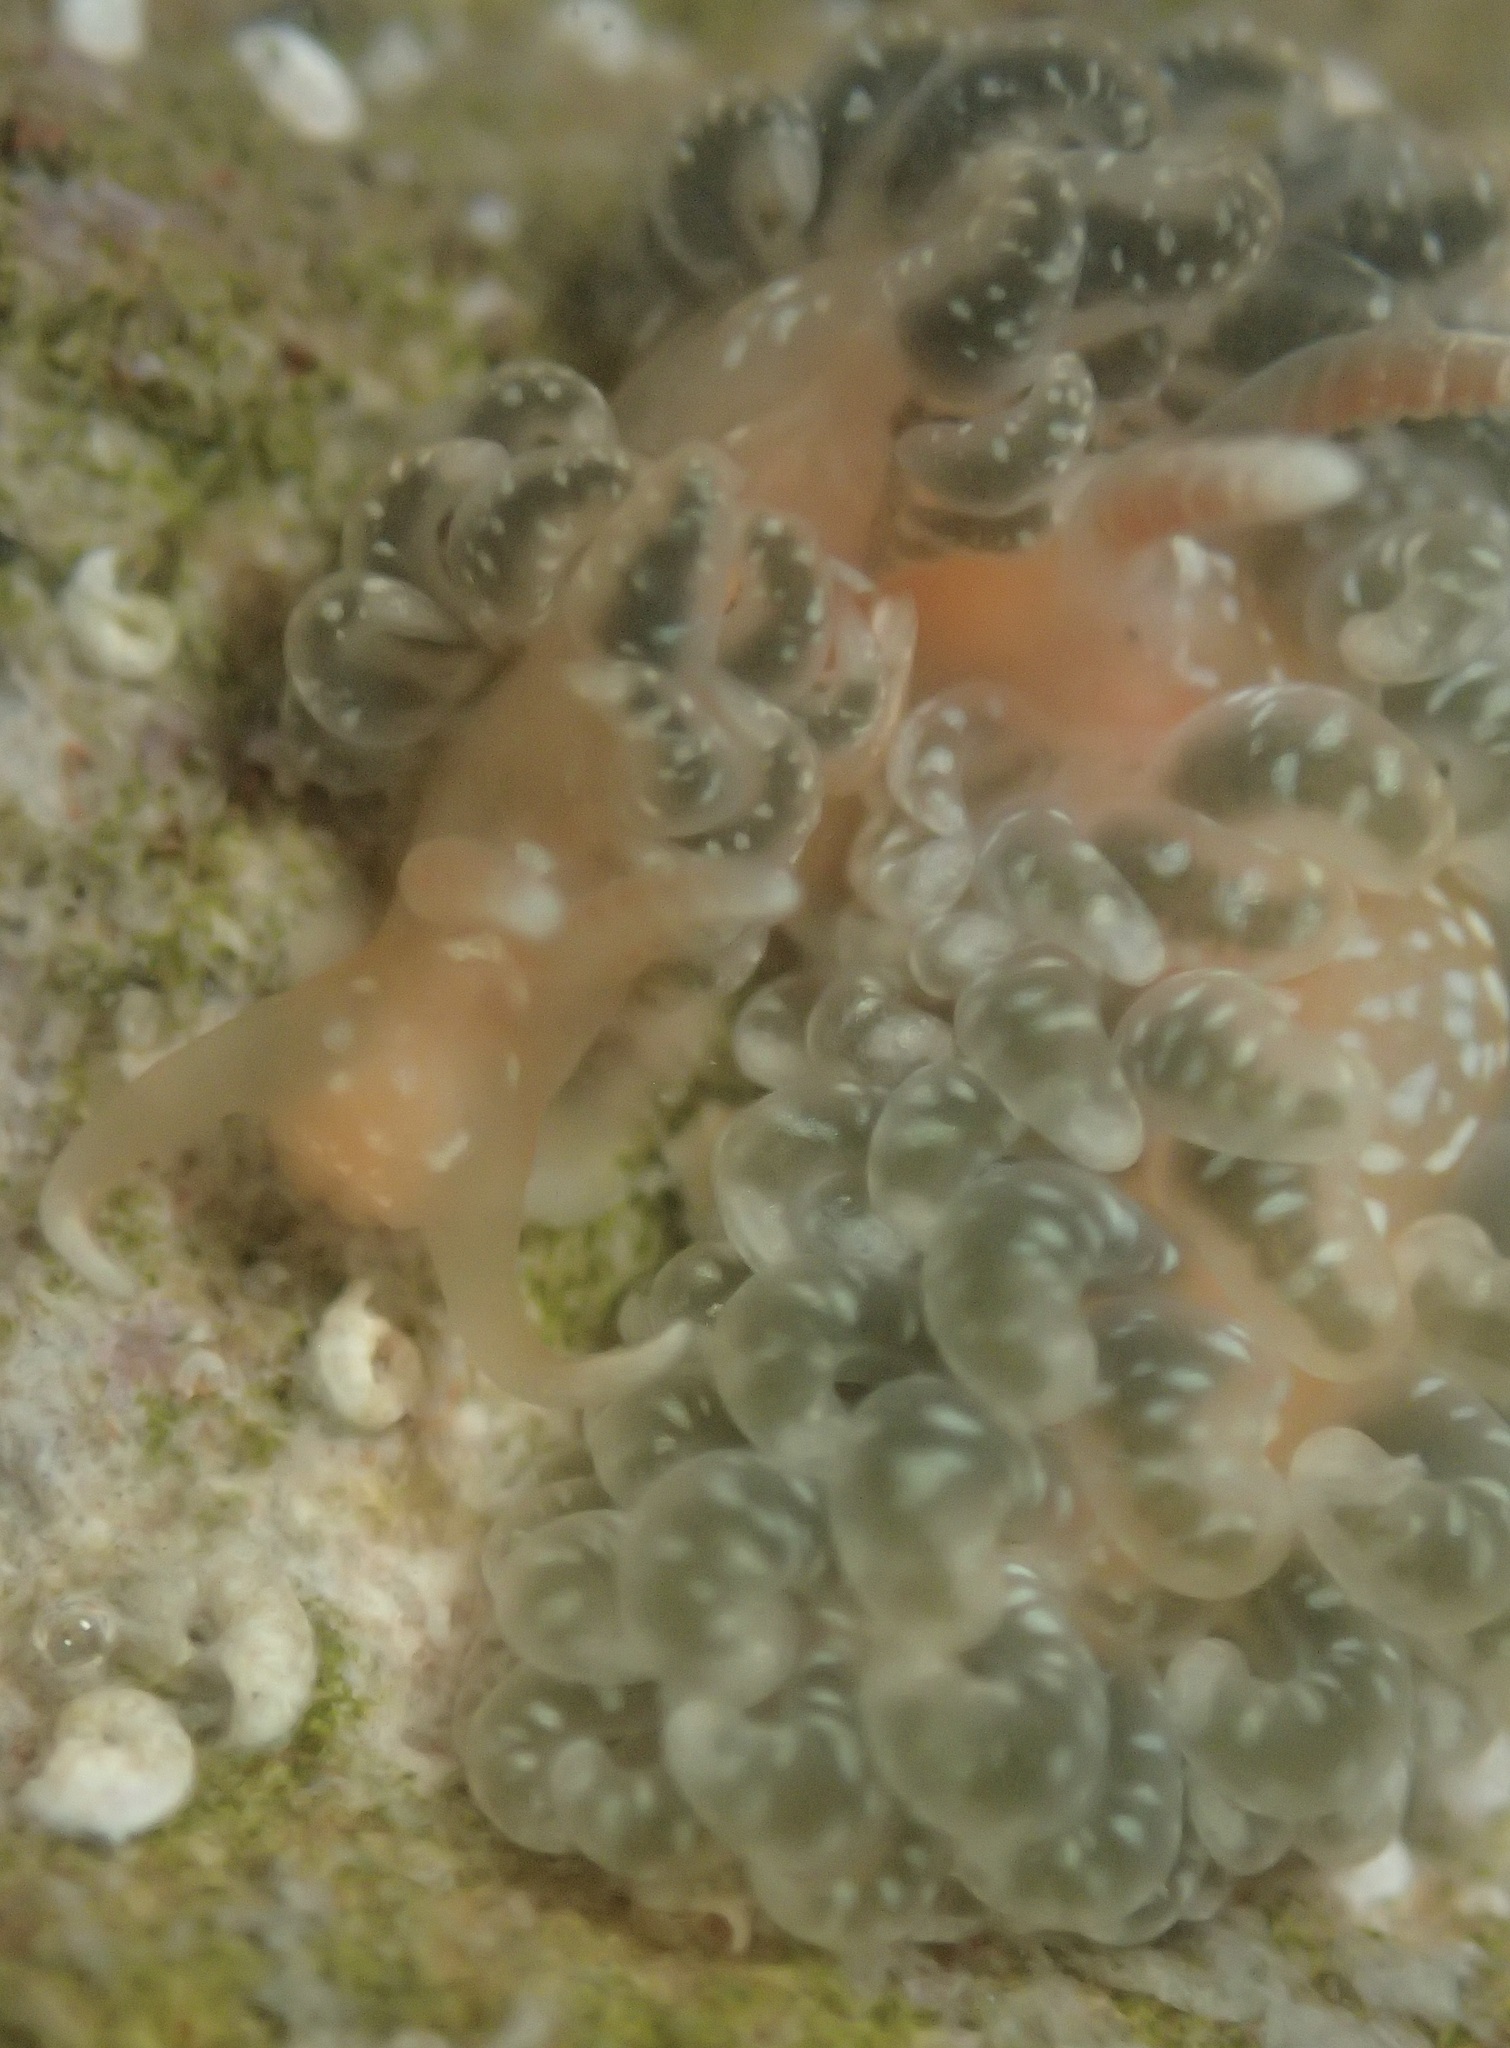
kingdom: Animalia
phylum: Mollusca
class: Gastropoda
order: Nudibranchia
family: Aeolidiidae
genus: Spurilla
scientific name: Spurilla braziliana
